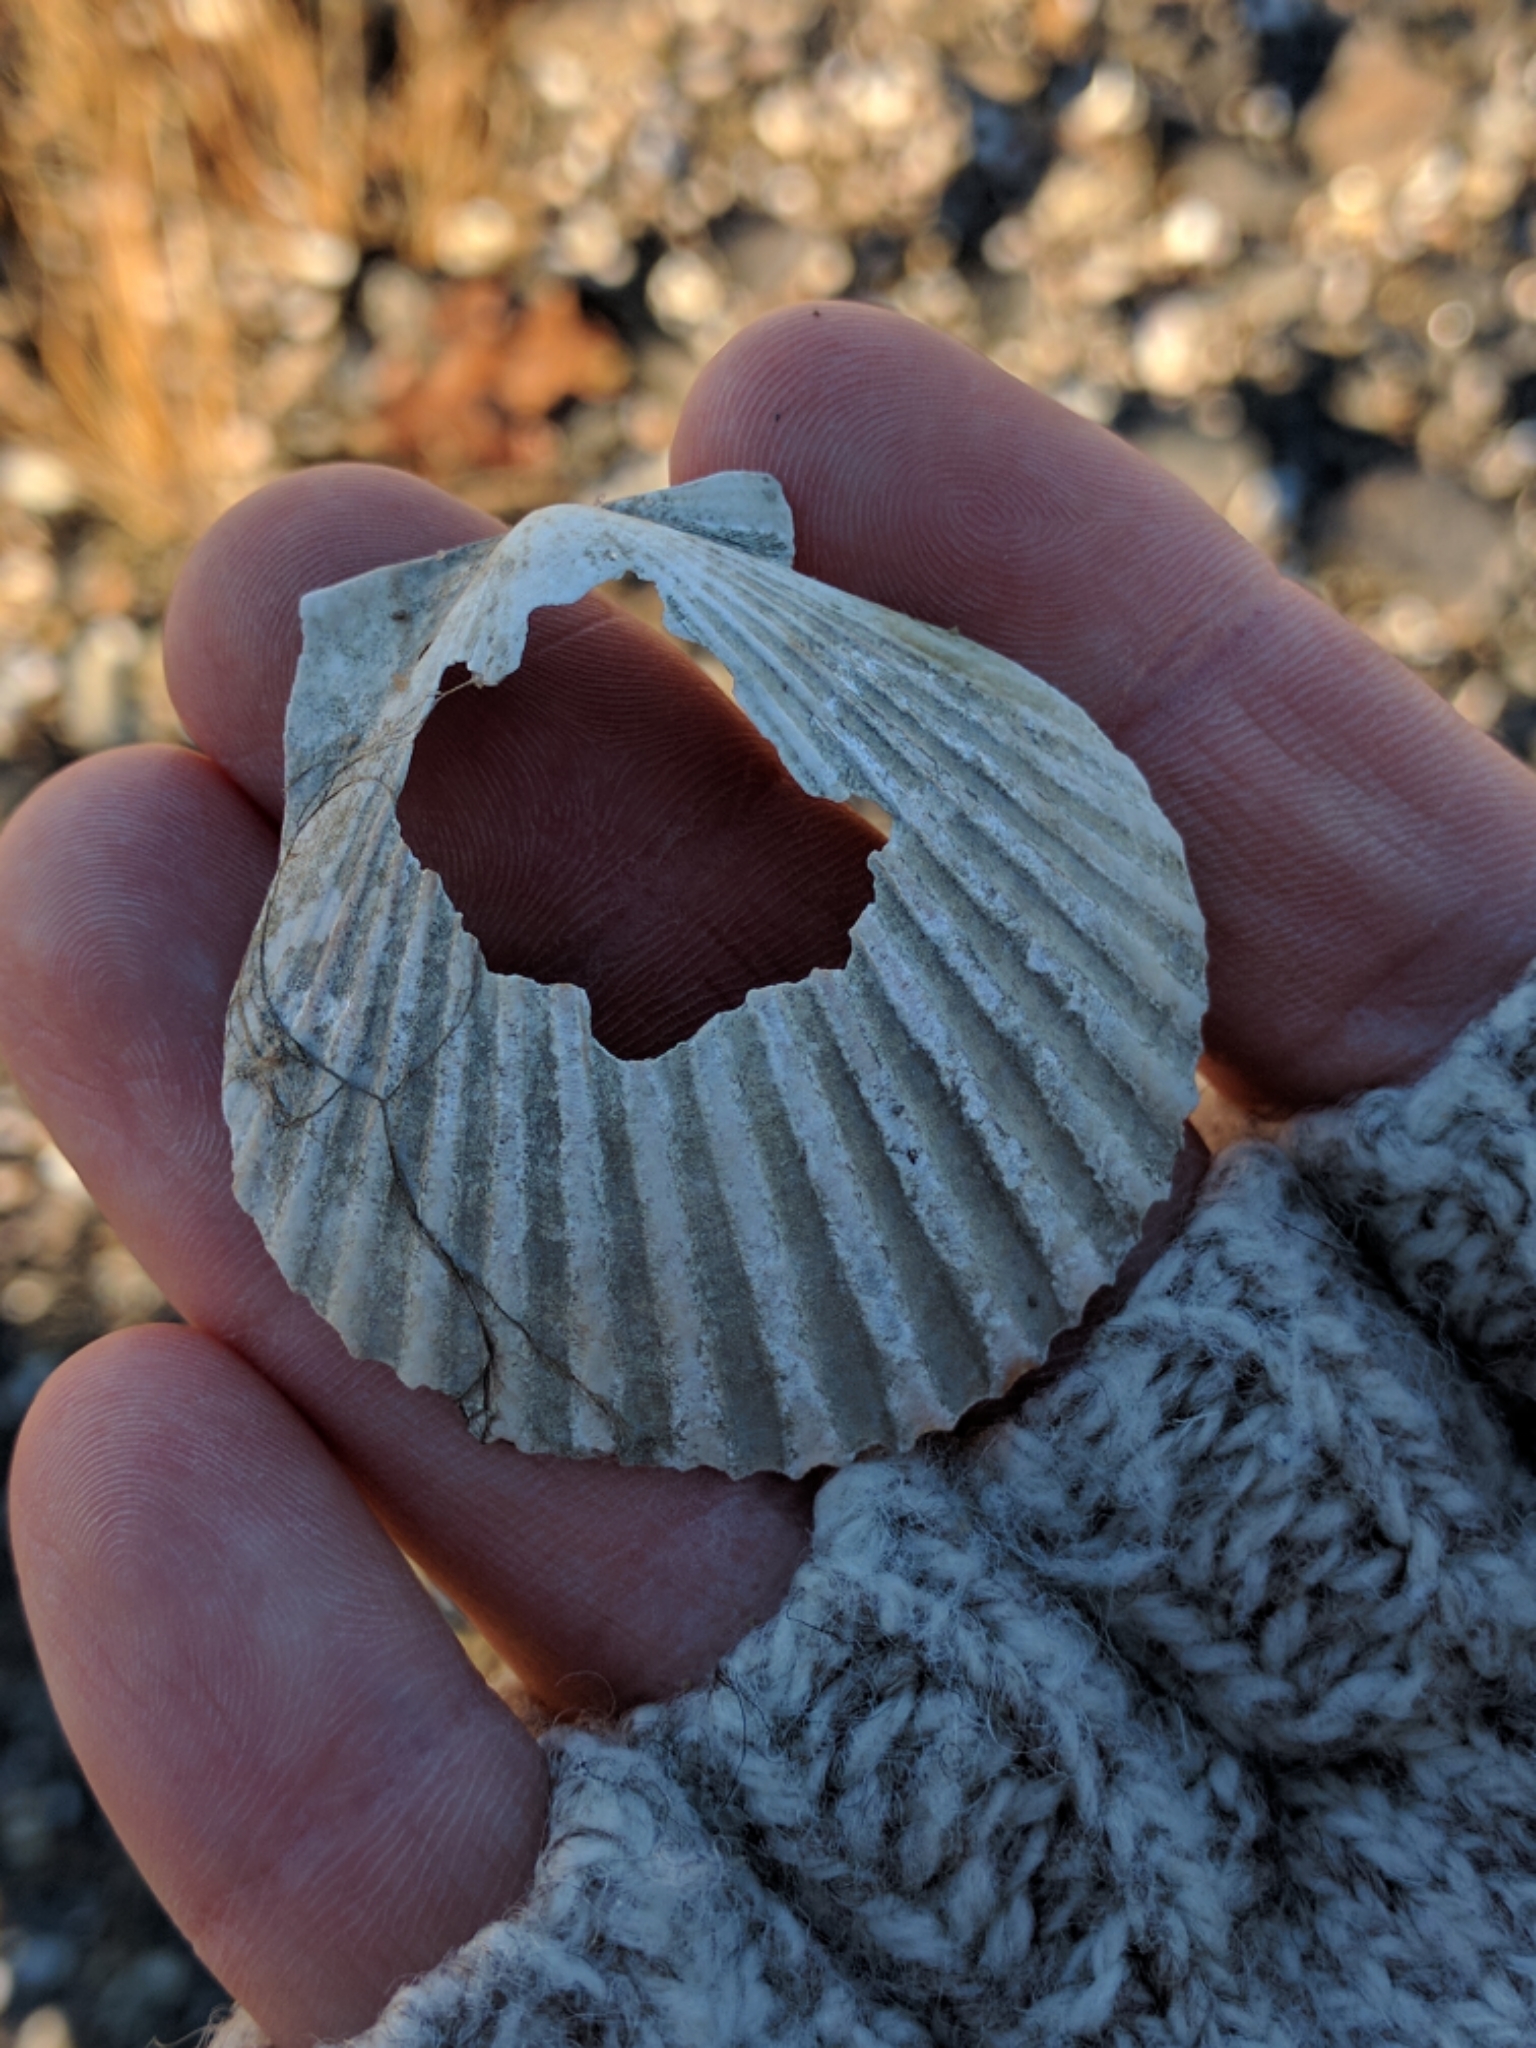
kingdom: Animalia
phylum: Mollusca
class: Bivalvia
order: Pectinida
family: Pectinidae
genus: Argopecten
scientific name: Argopecten irradians
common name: Atlantic bay scallop
